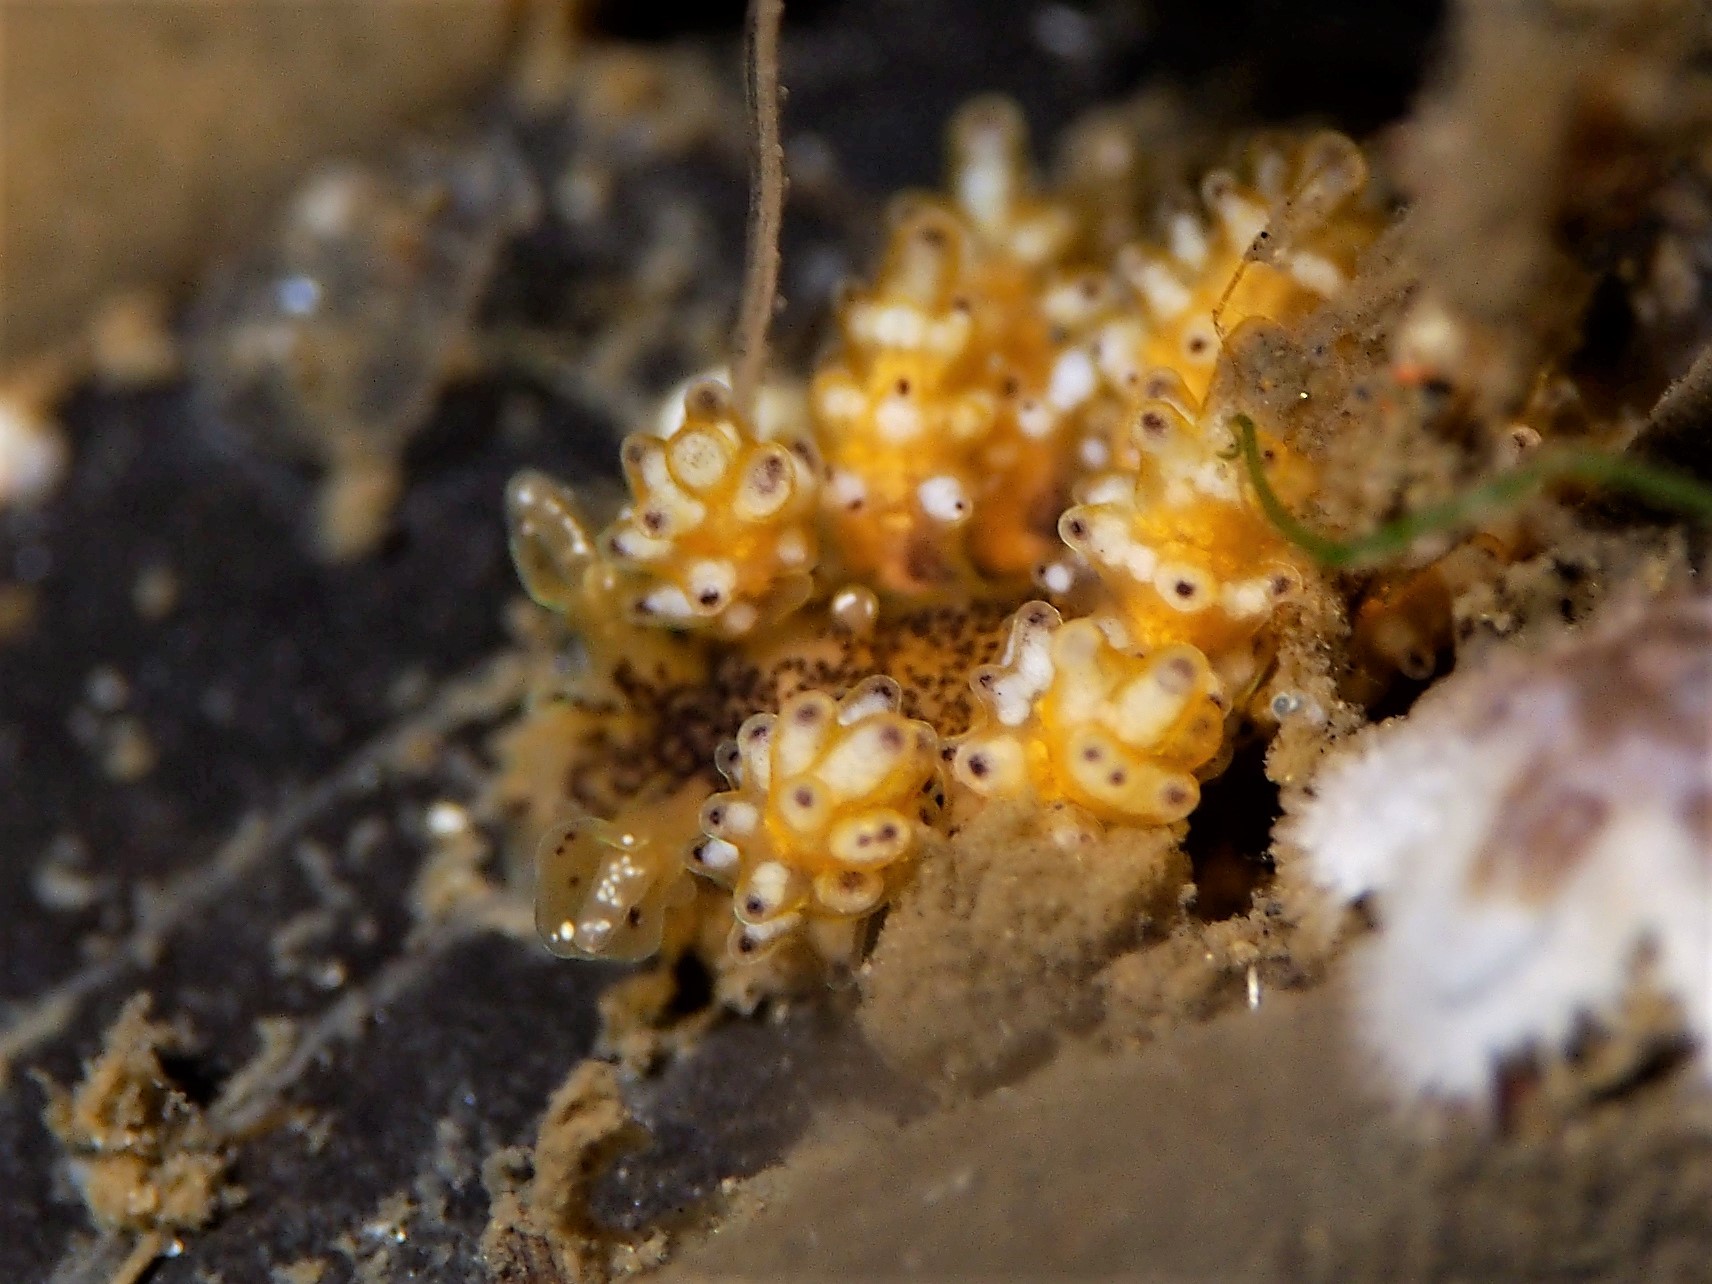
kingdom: Animalia
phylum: Mollusca
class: Gastropoda
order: Nudibranchia
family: Dotidae
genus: Doto
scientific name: Doto maculata
